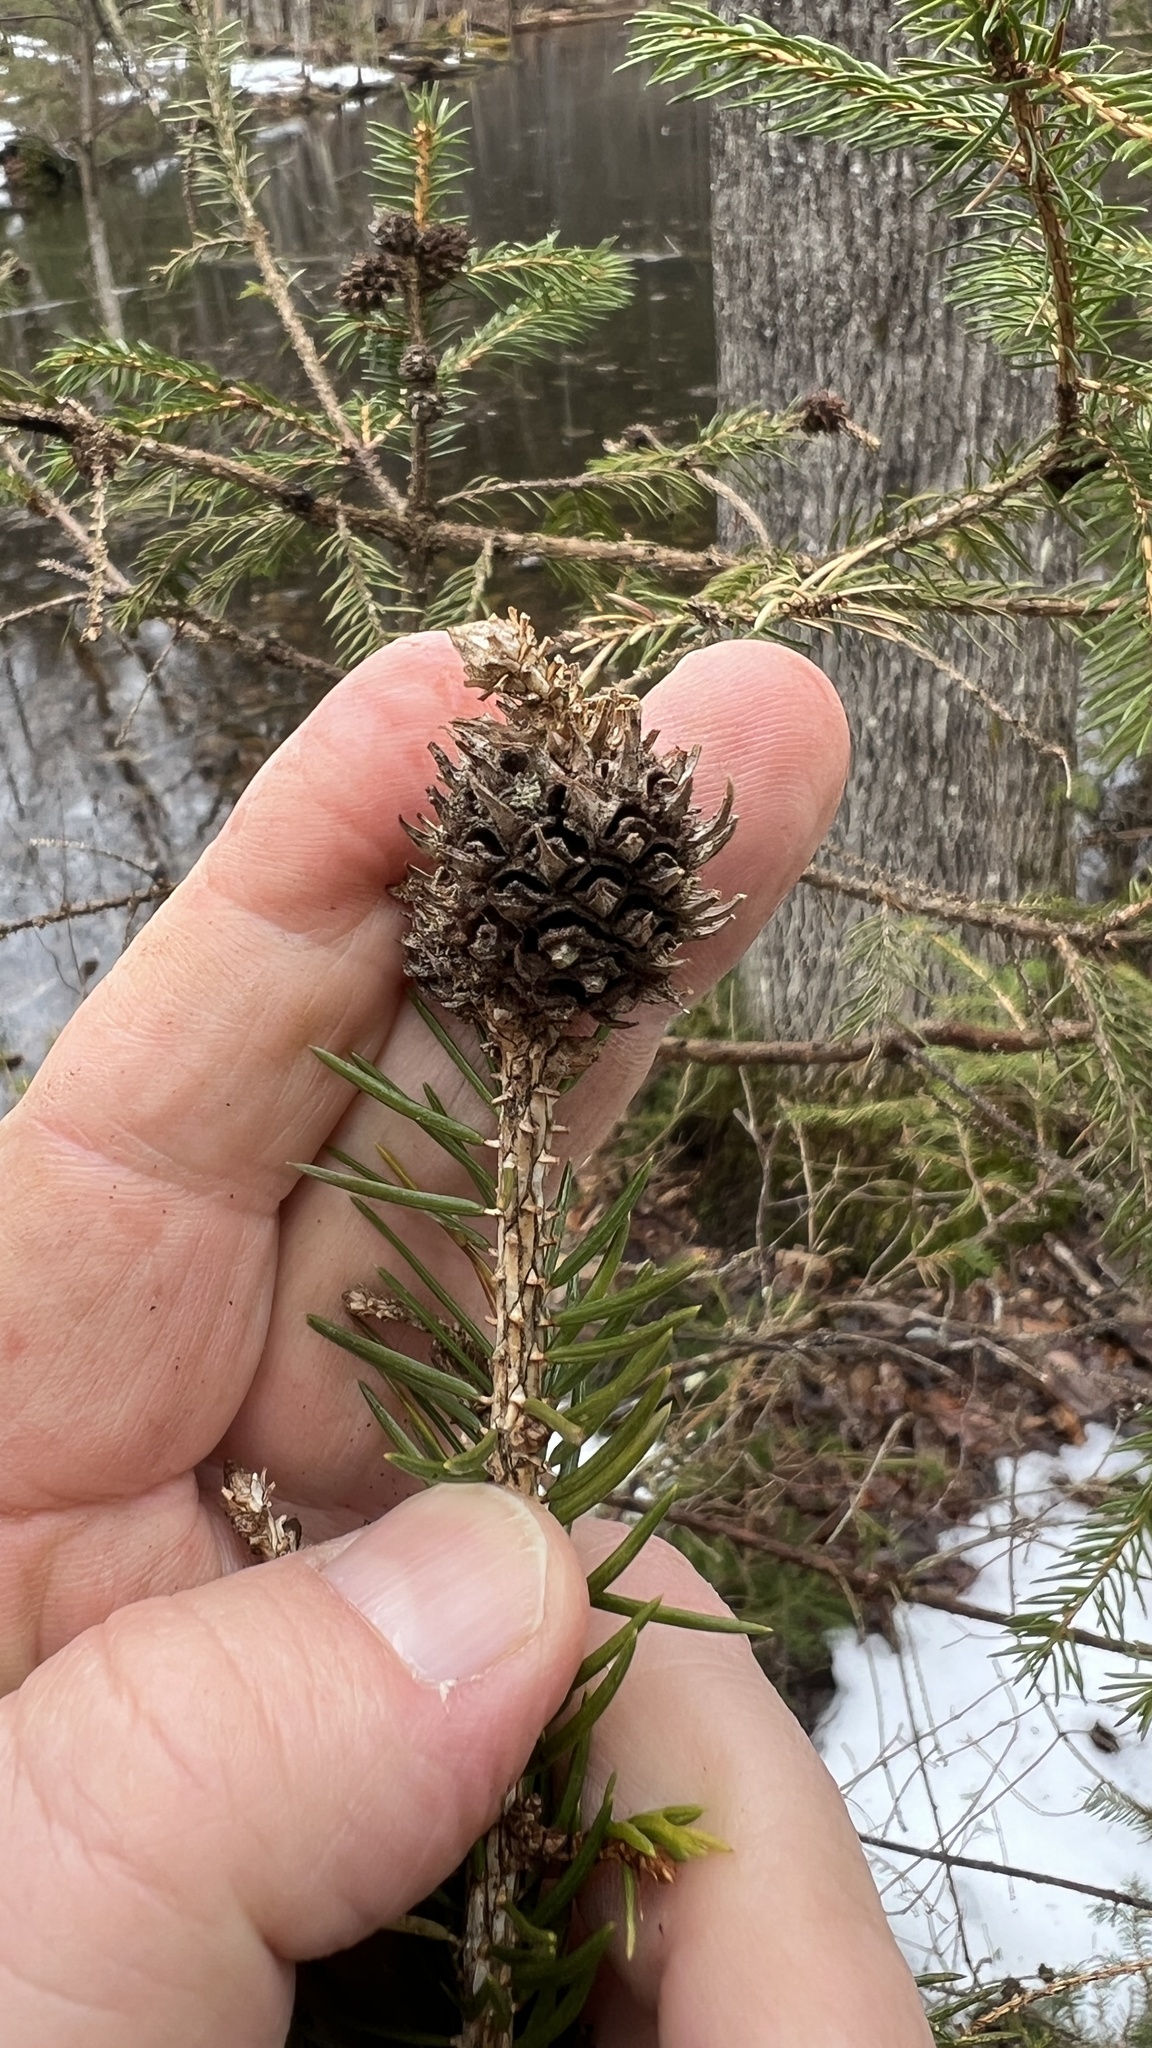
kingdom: Animalia
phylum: Arthropoda
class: Insecta
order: Hemiptera
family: Adelgidae
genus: Adelges
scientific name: Adelges abietis
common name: Eastern spruce gall adelgid
